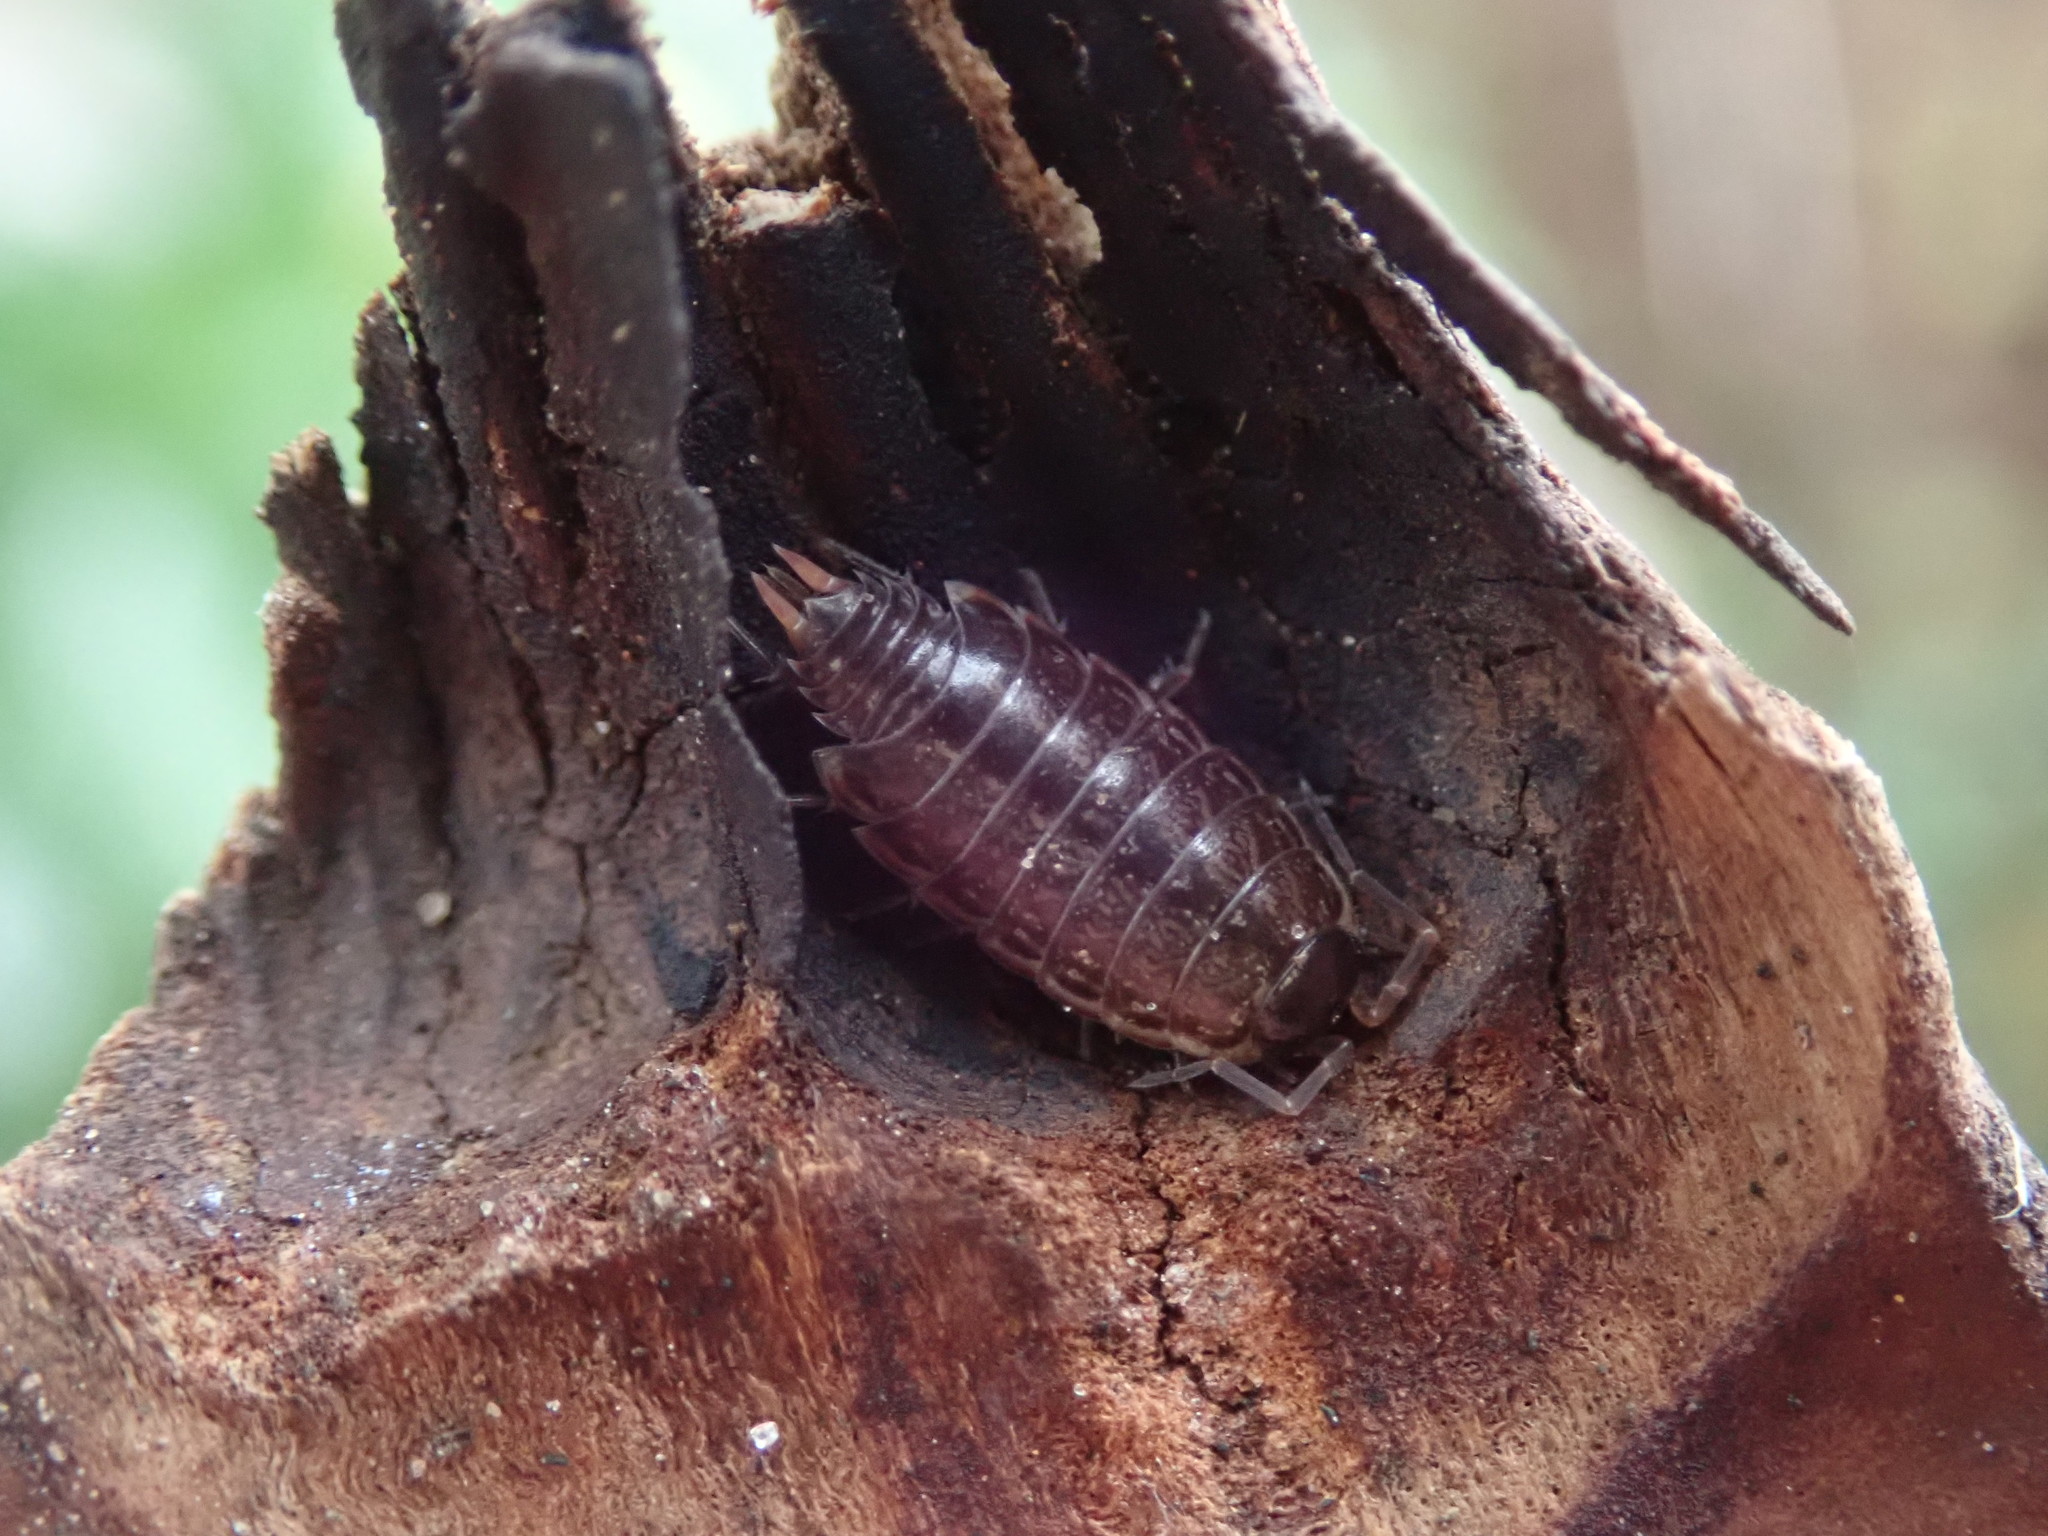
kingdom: Animalia
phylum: Arthropoda
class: Malacostraca
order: Isopoda
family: Philosciidae
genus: Philoscia
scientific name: Philoscia muscorum
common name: Common striped woodlouse
